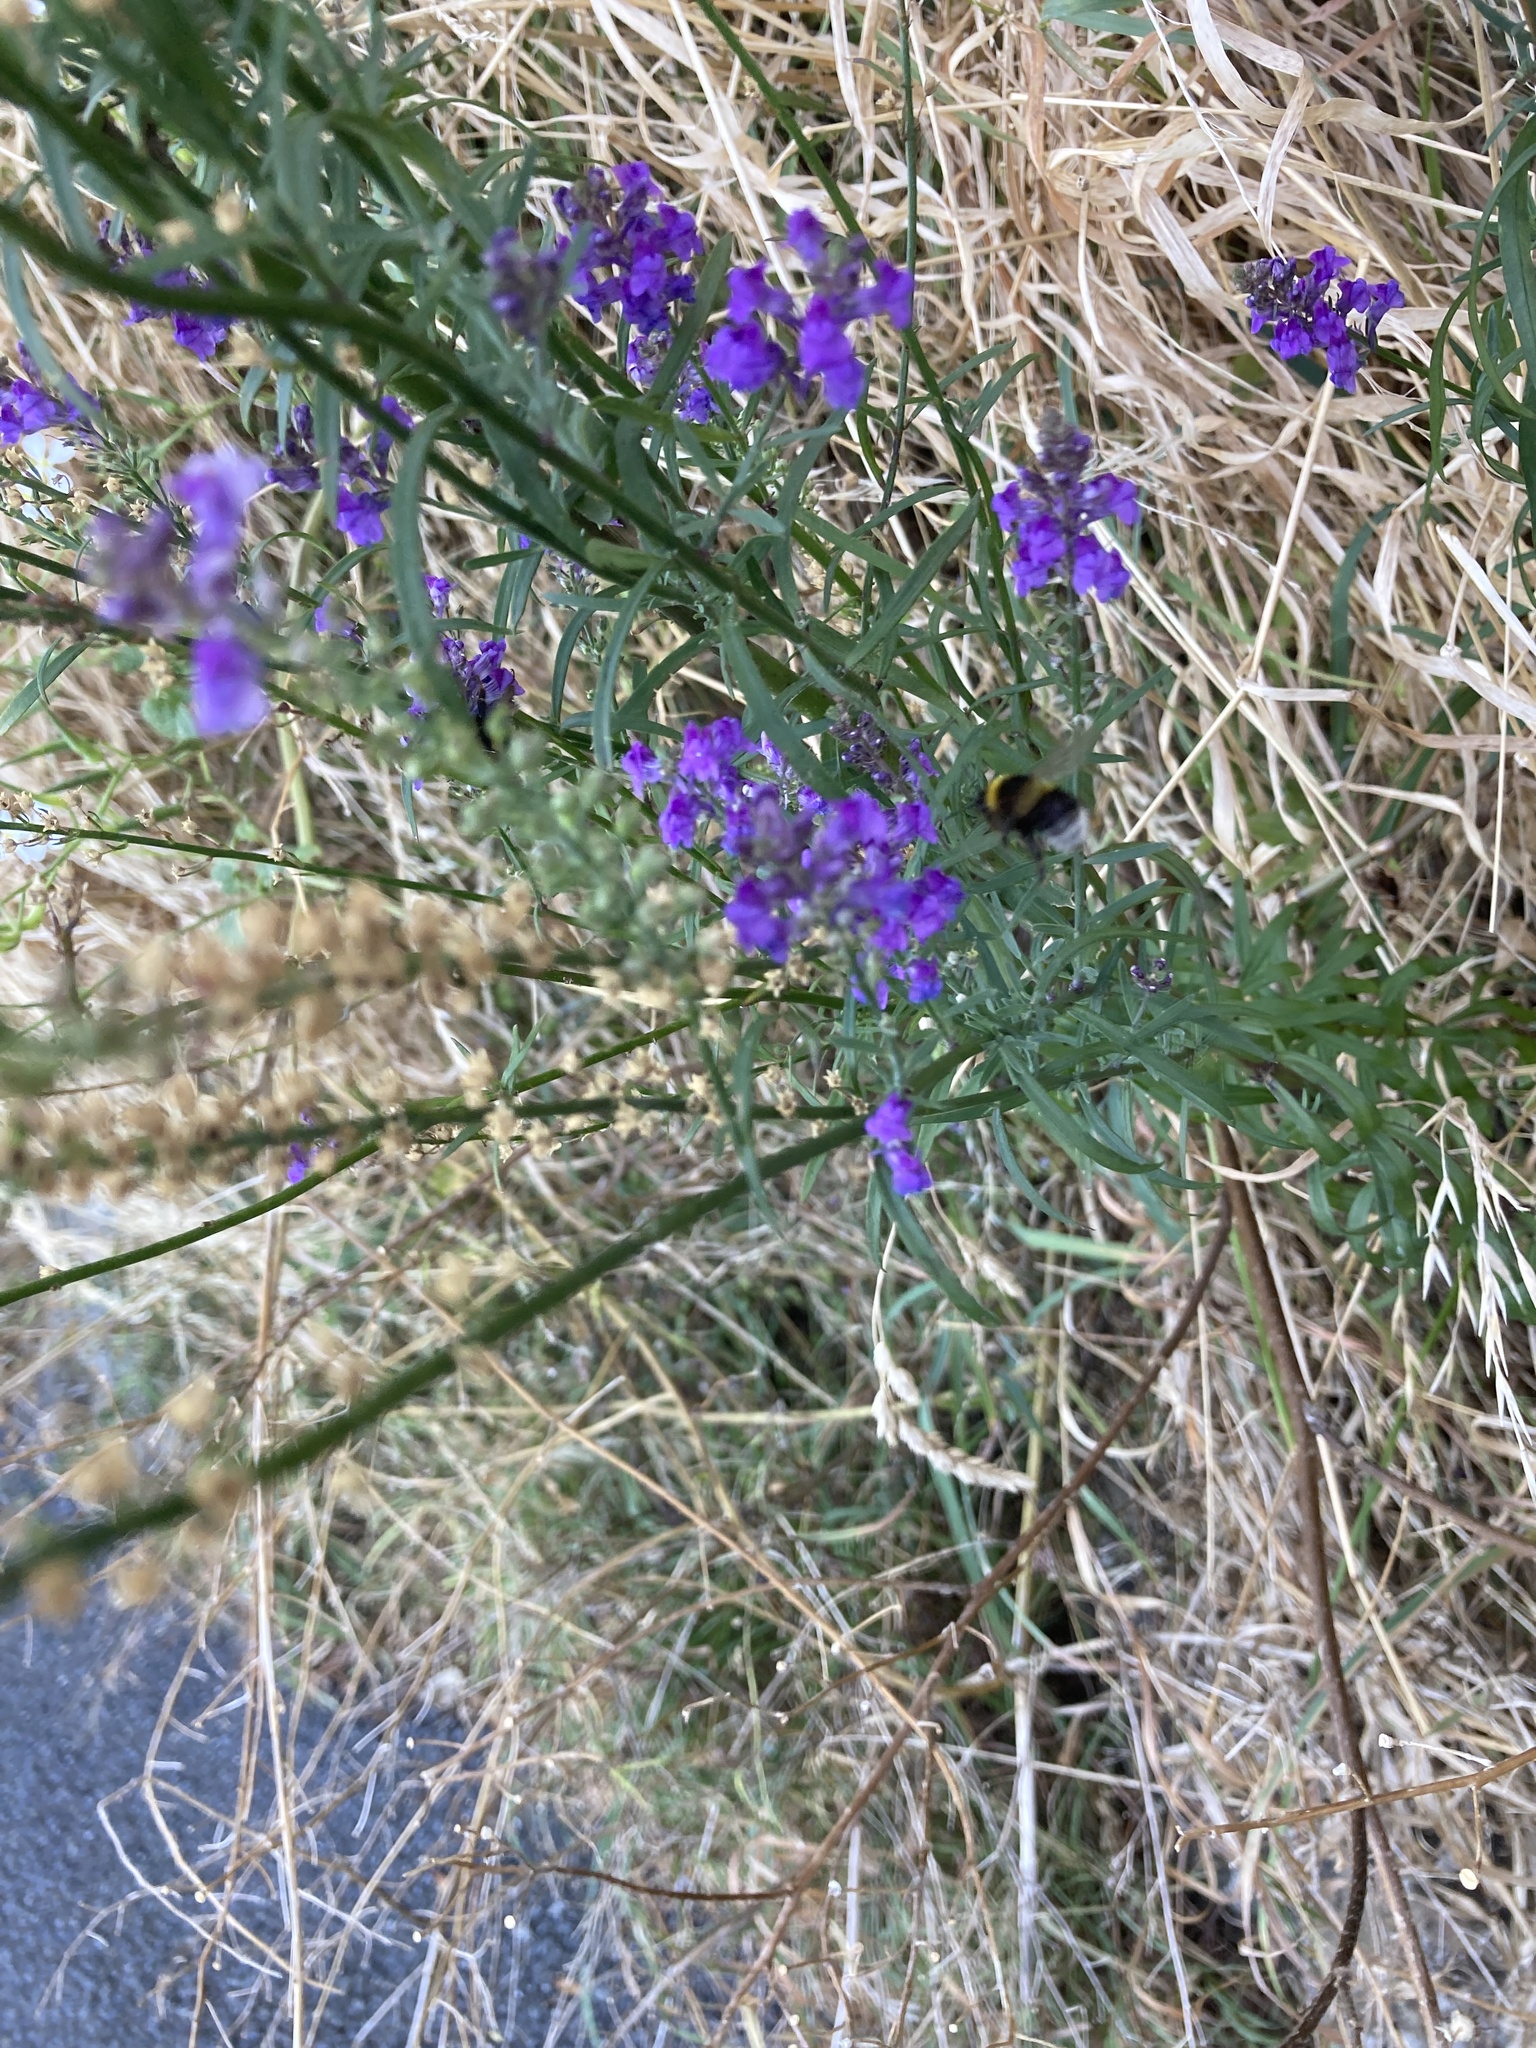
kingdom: Animalia
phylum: Arthropoda
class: Insecta
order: Hymenoptera
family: Apidae
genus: Bombus
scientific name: Bombus terrestris
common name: Buff-tailed bumblebee
